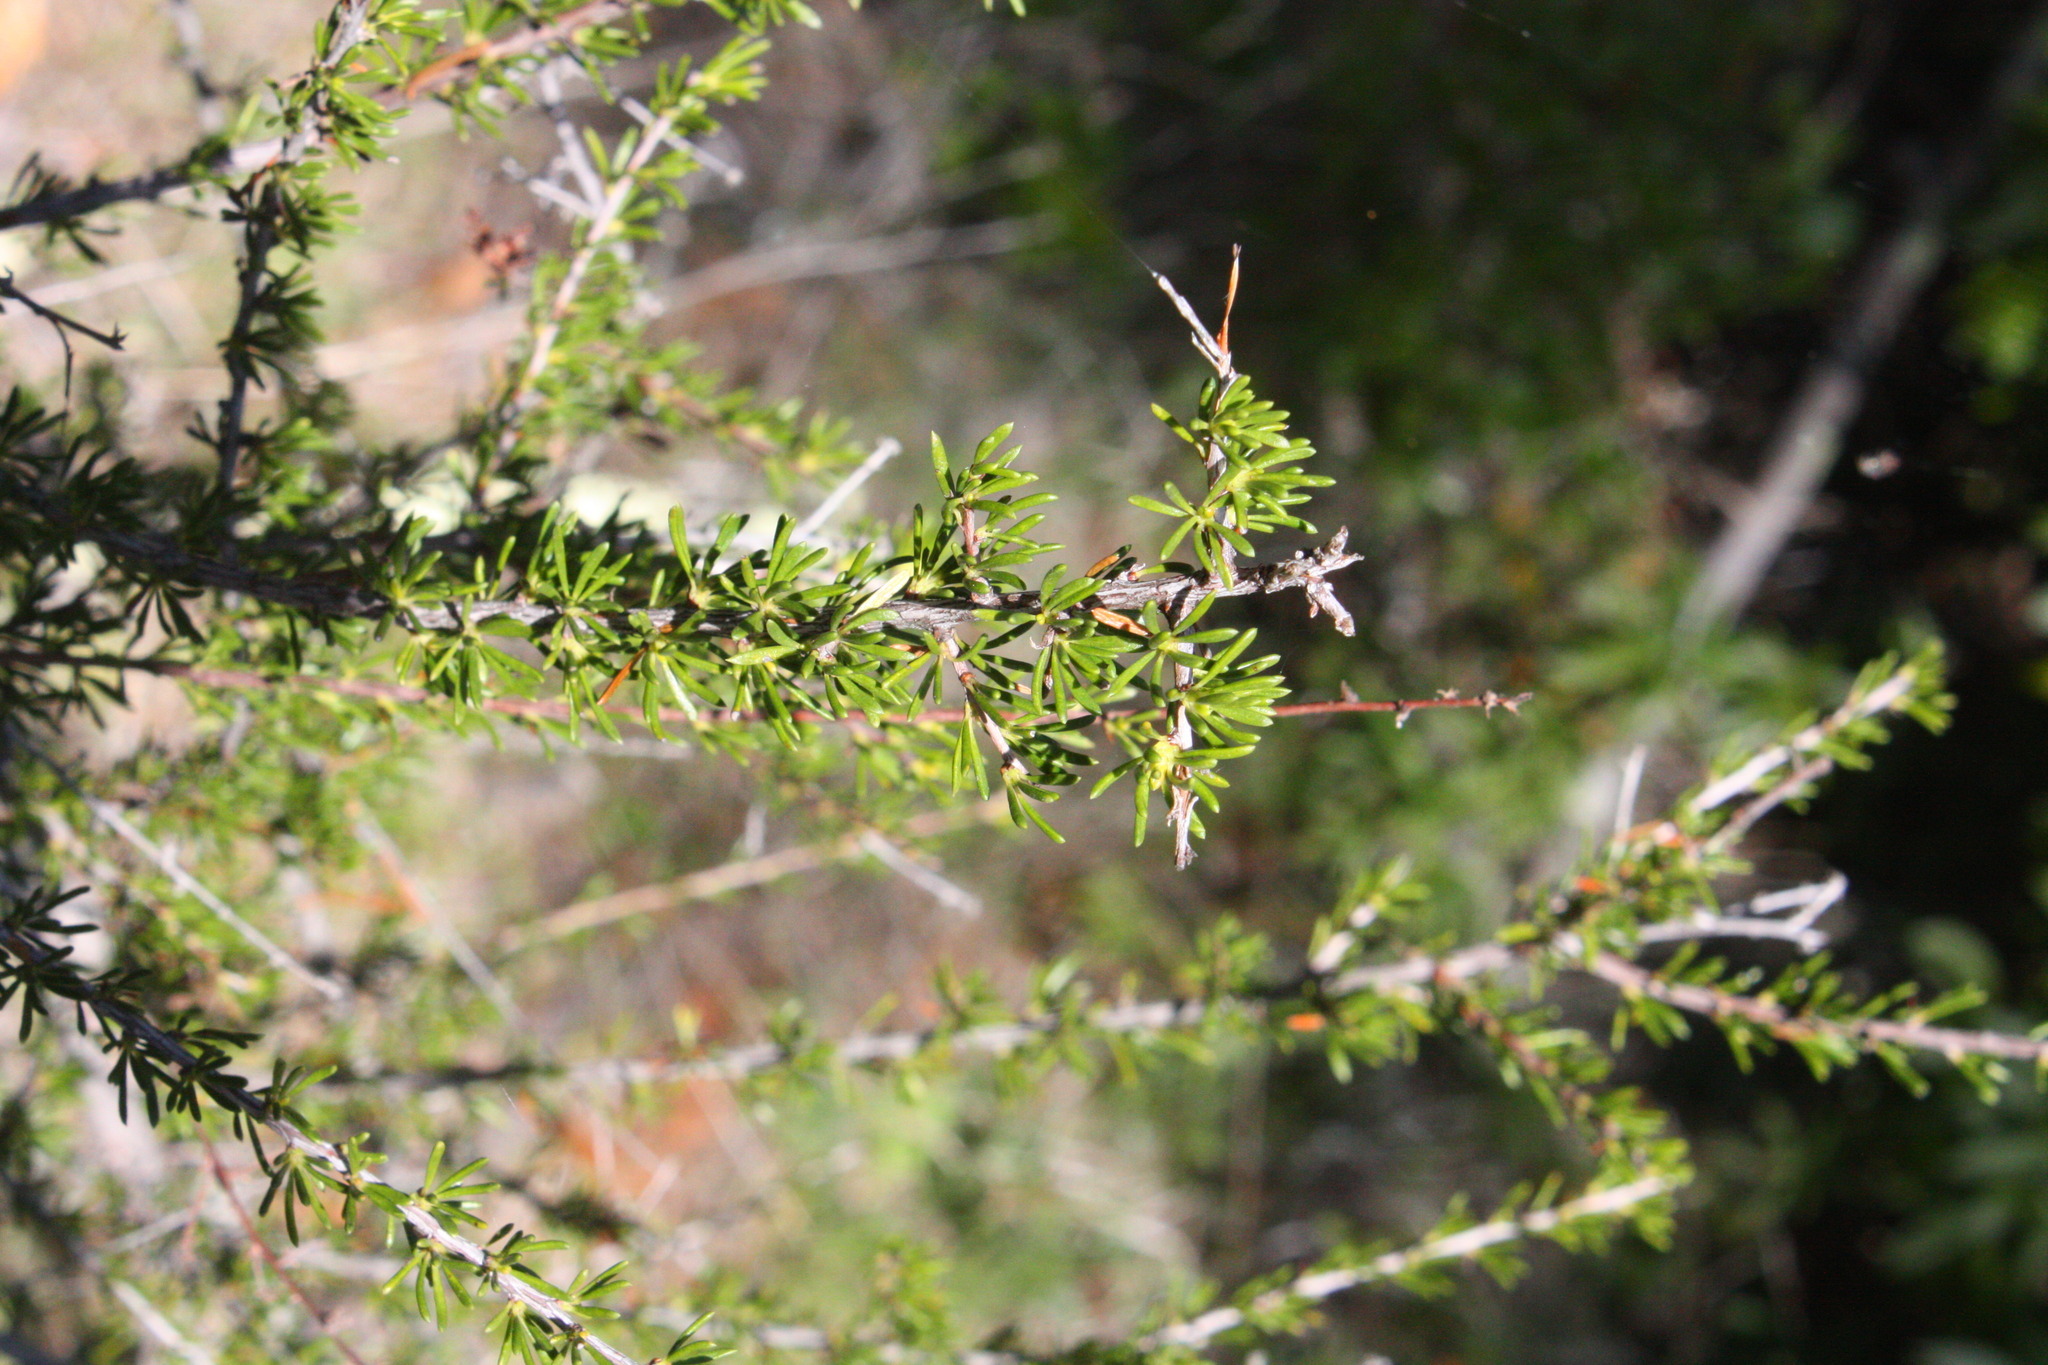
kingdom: Plantae
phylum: Tracheophyta
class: Magnoliopsida
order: Rosales
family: Rosaceae
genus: Adenostoma
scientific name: Adenostoma fasciculatum
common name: Chamise
